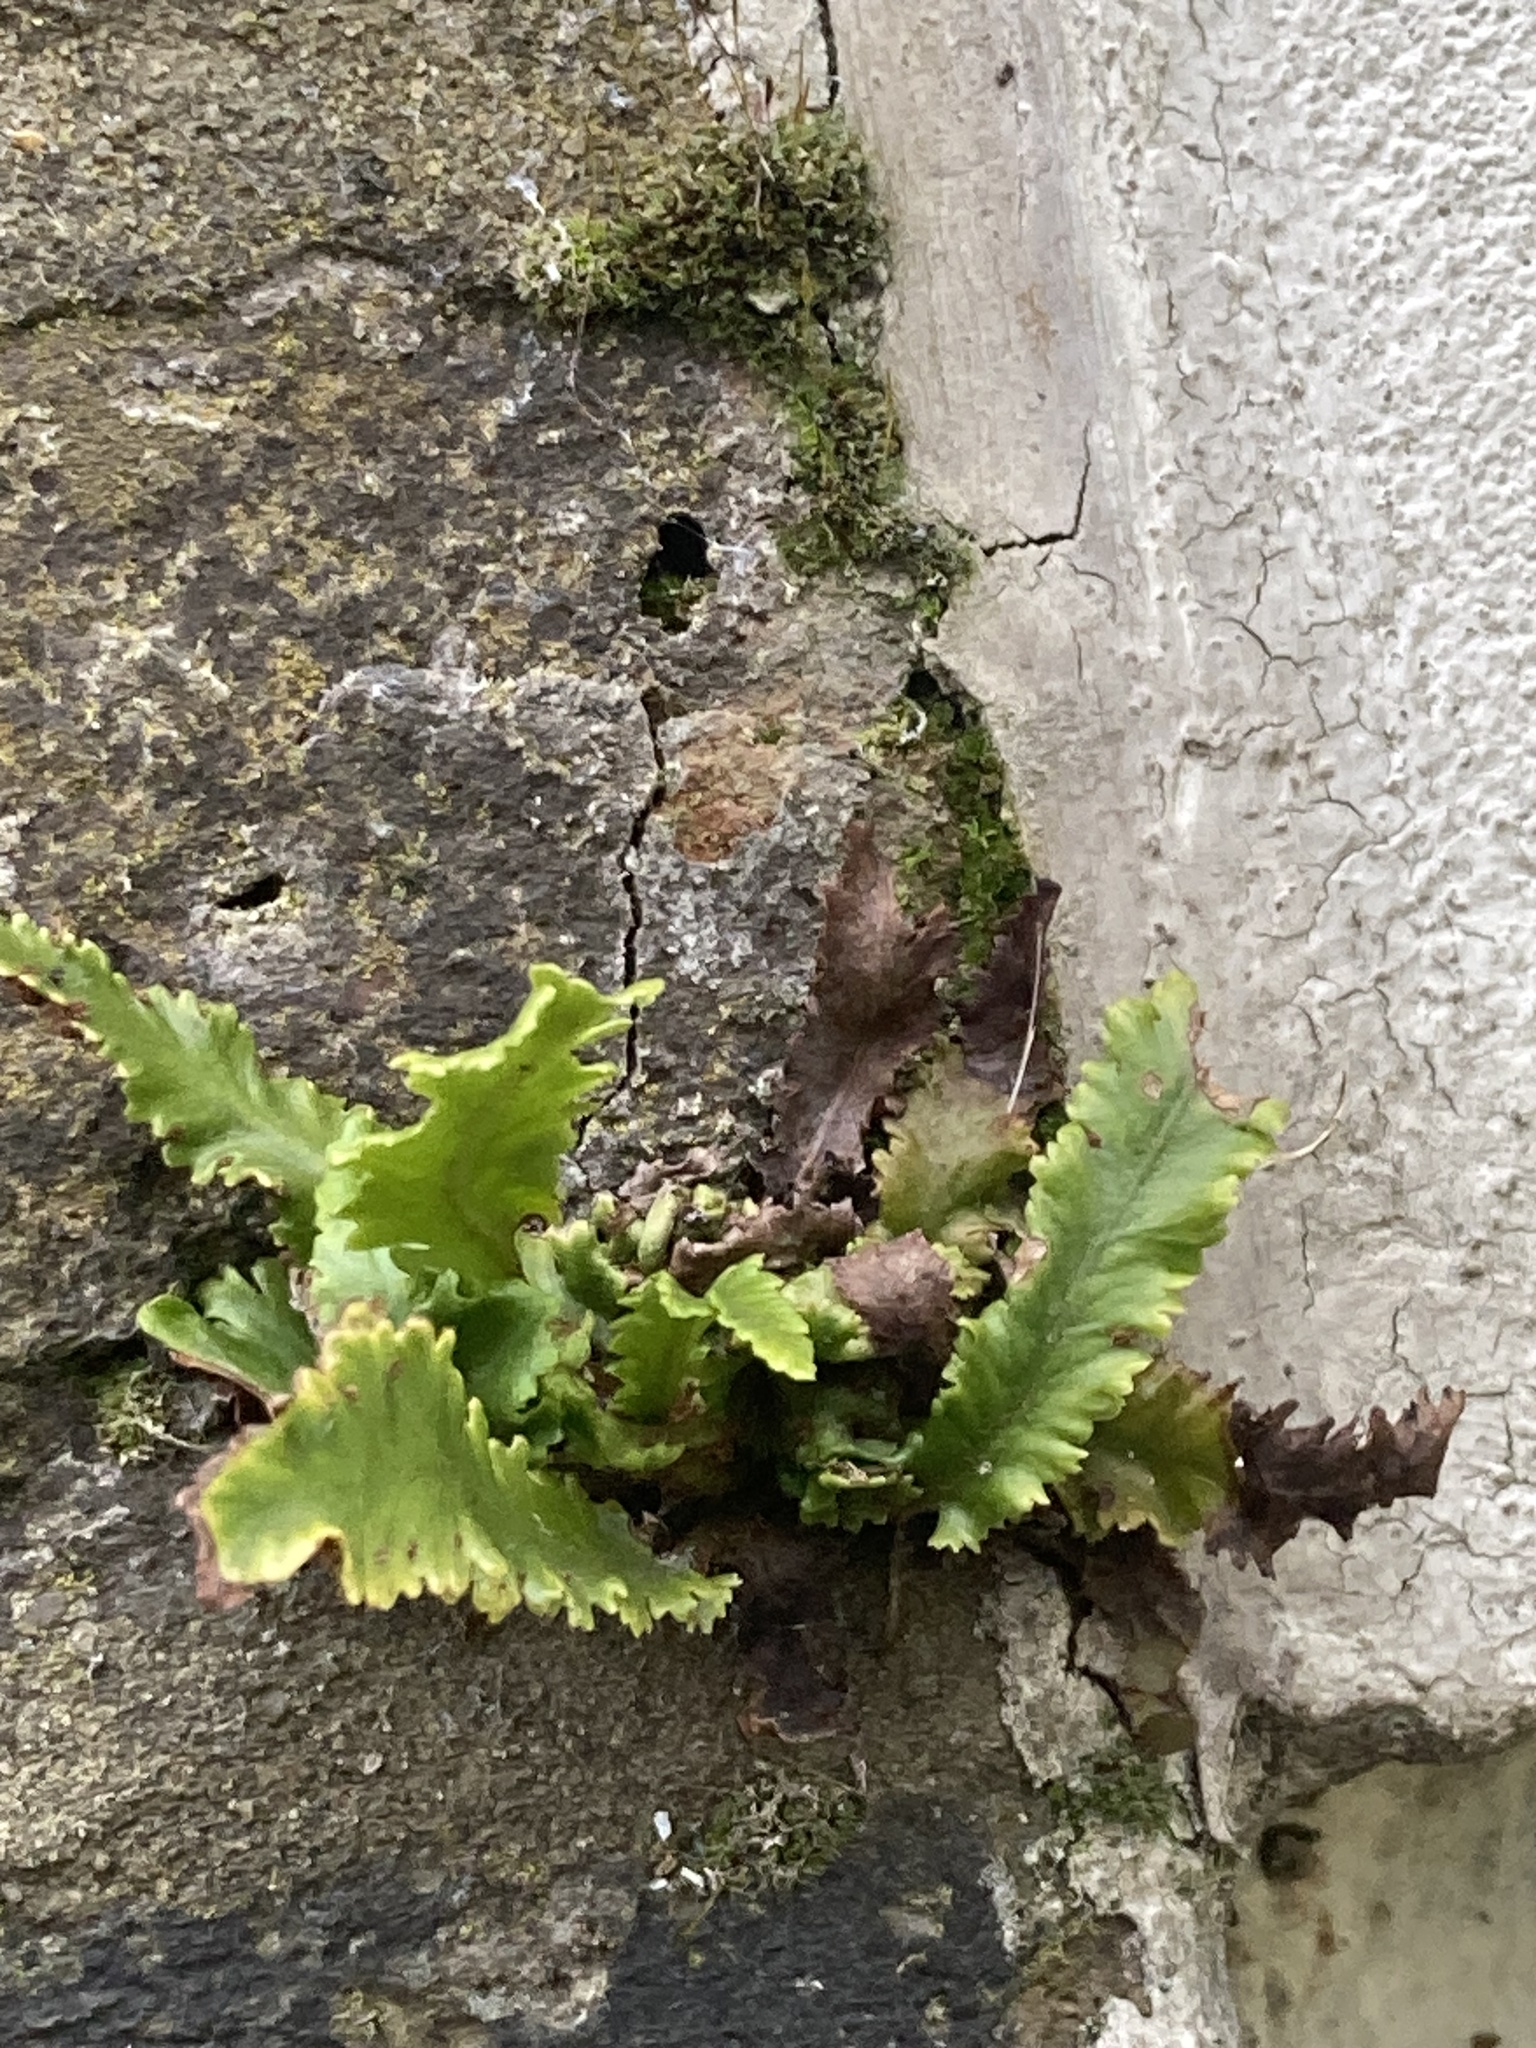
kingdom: Plantae
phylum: Tracheophyta
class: Polypodiopsida
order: Polypodiales
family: Aspleniaceae
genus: Asplenium
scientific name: Asplenium scolopendrium
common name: Hart's-tongue fern
